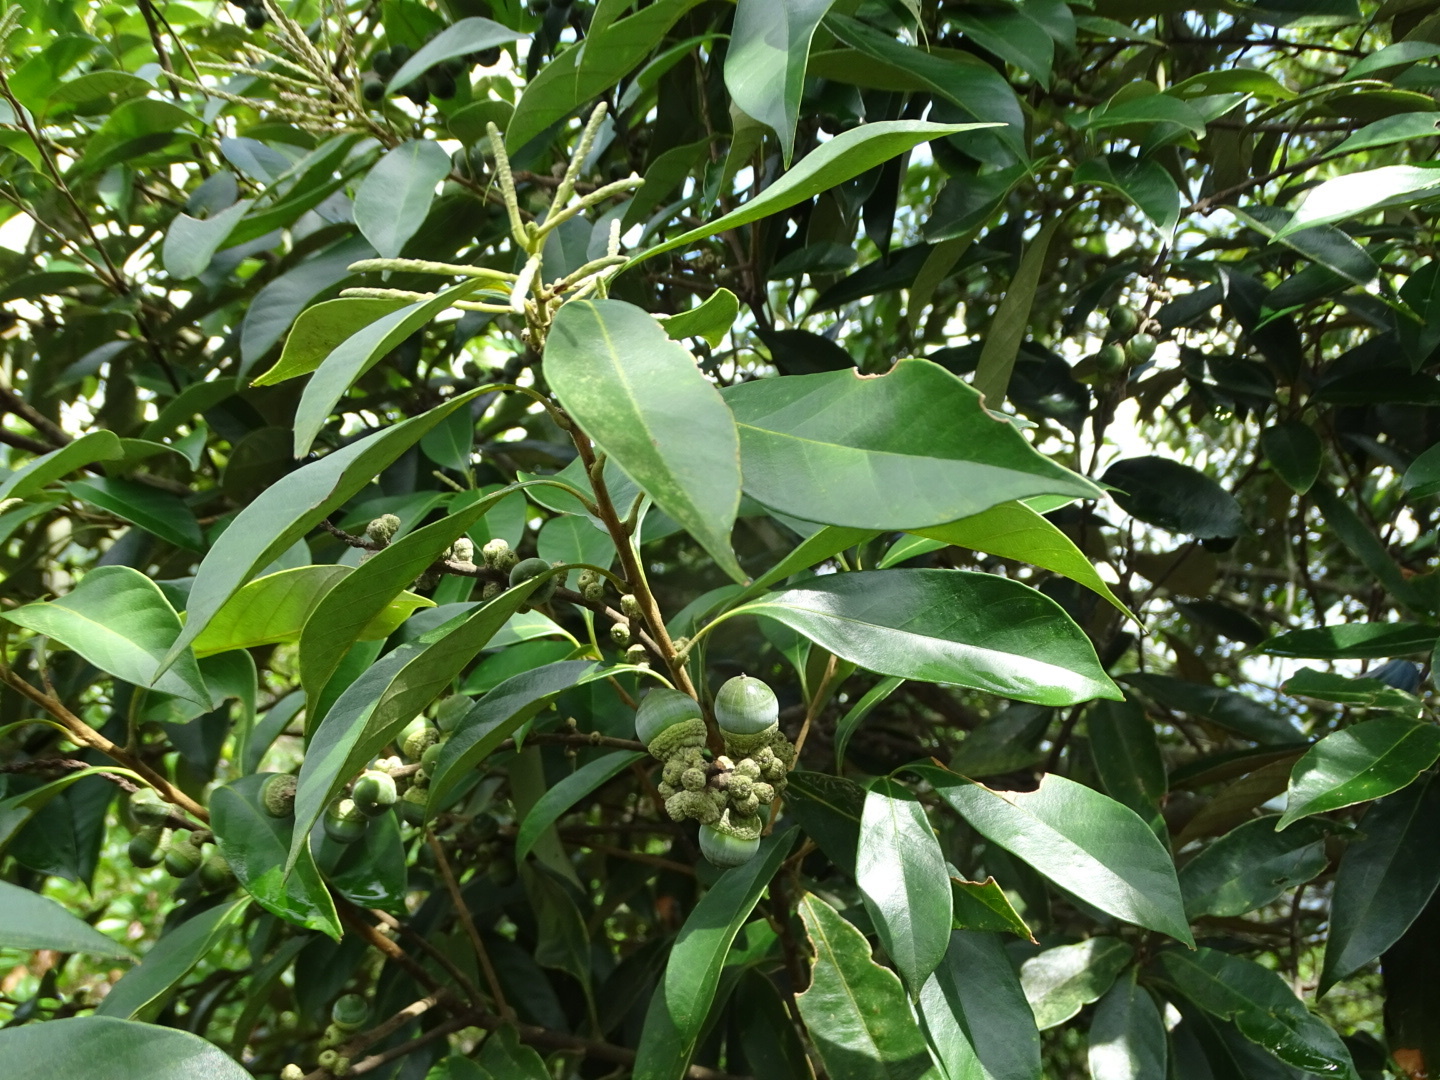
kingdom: Plantae
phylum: Tracheophyta
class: Magnoliopsida
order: Fagales
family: Fagaceae
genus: Lithocarpus
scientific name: Lithocarpus glaber
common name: Japanese-oak
